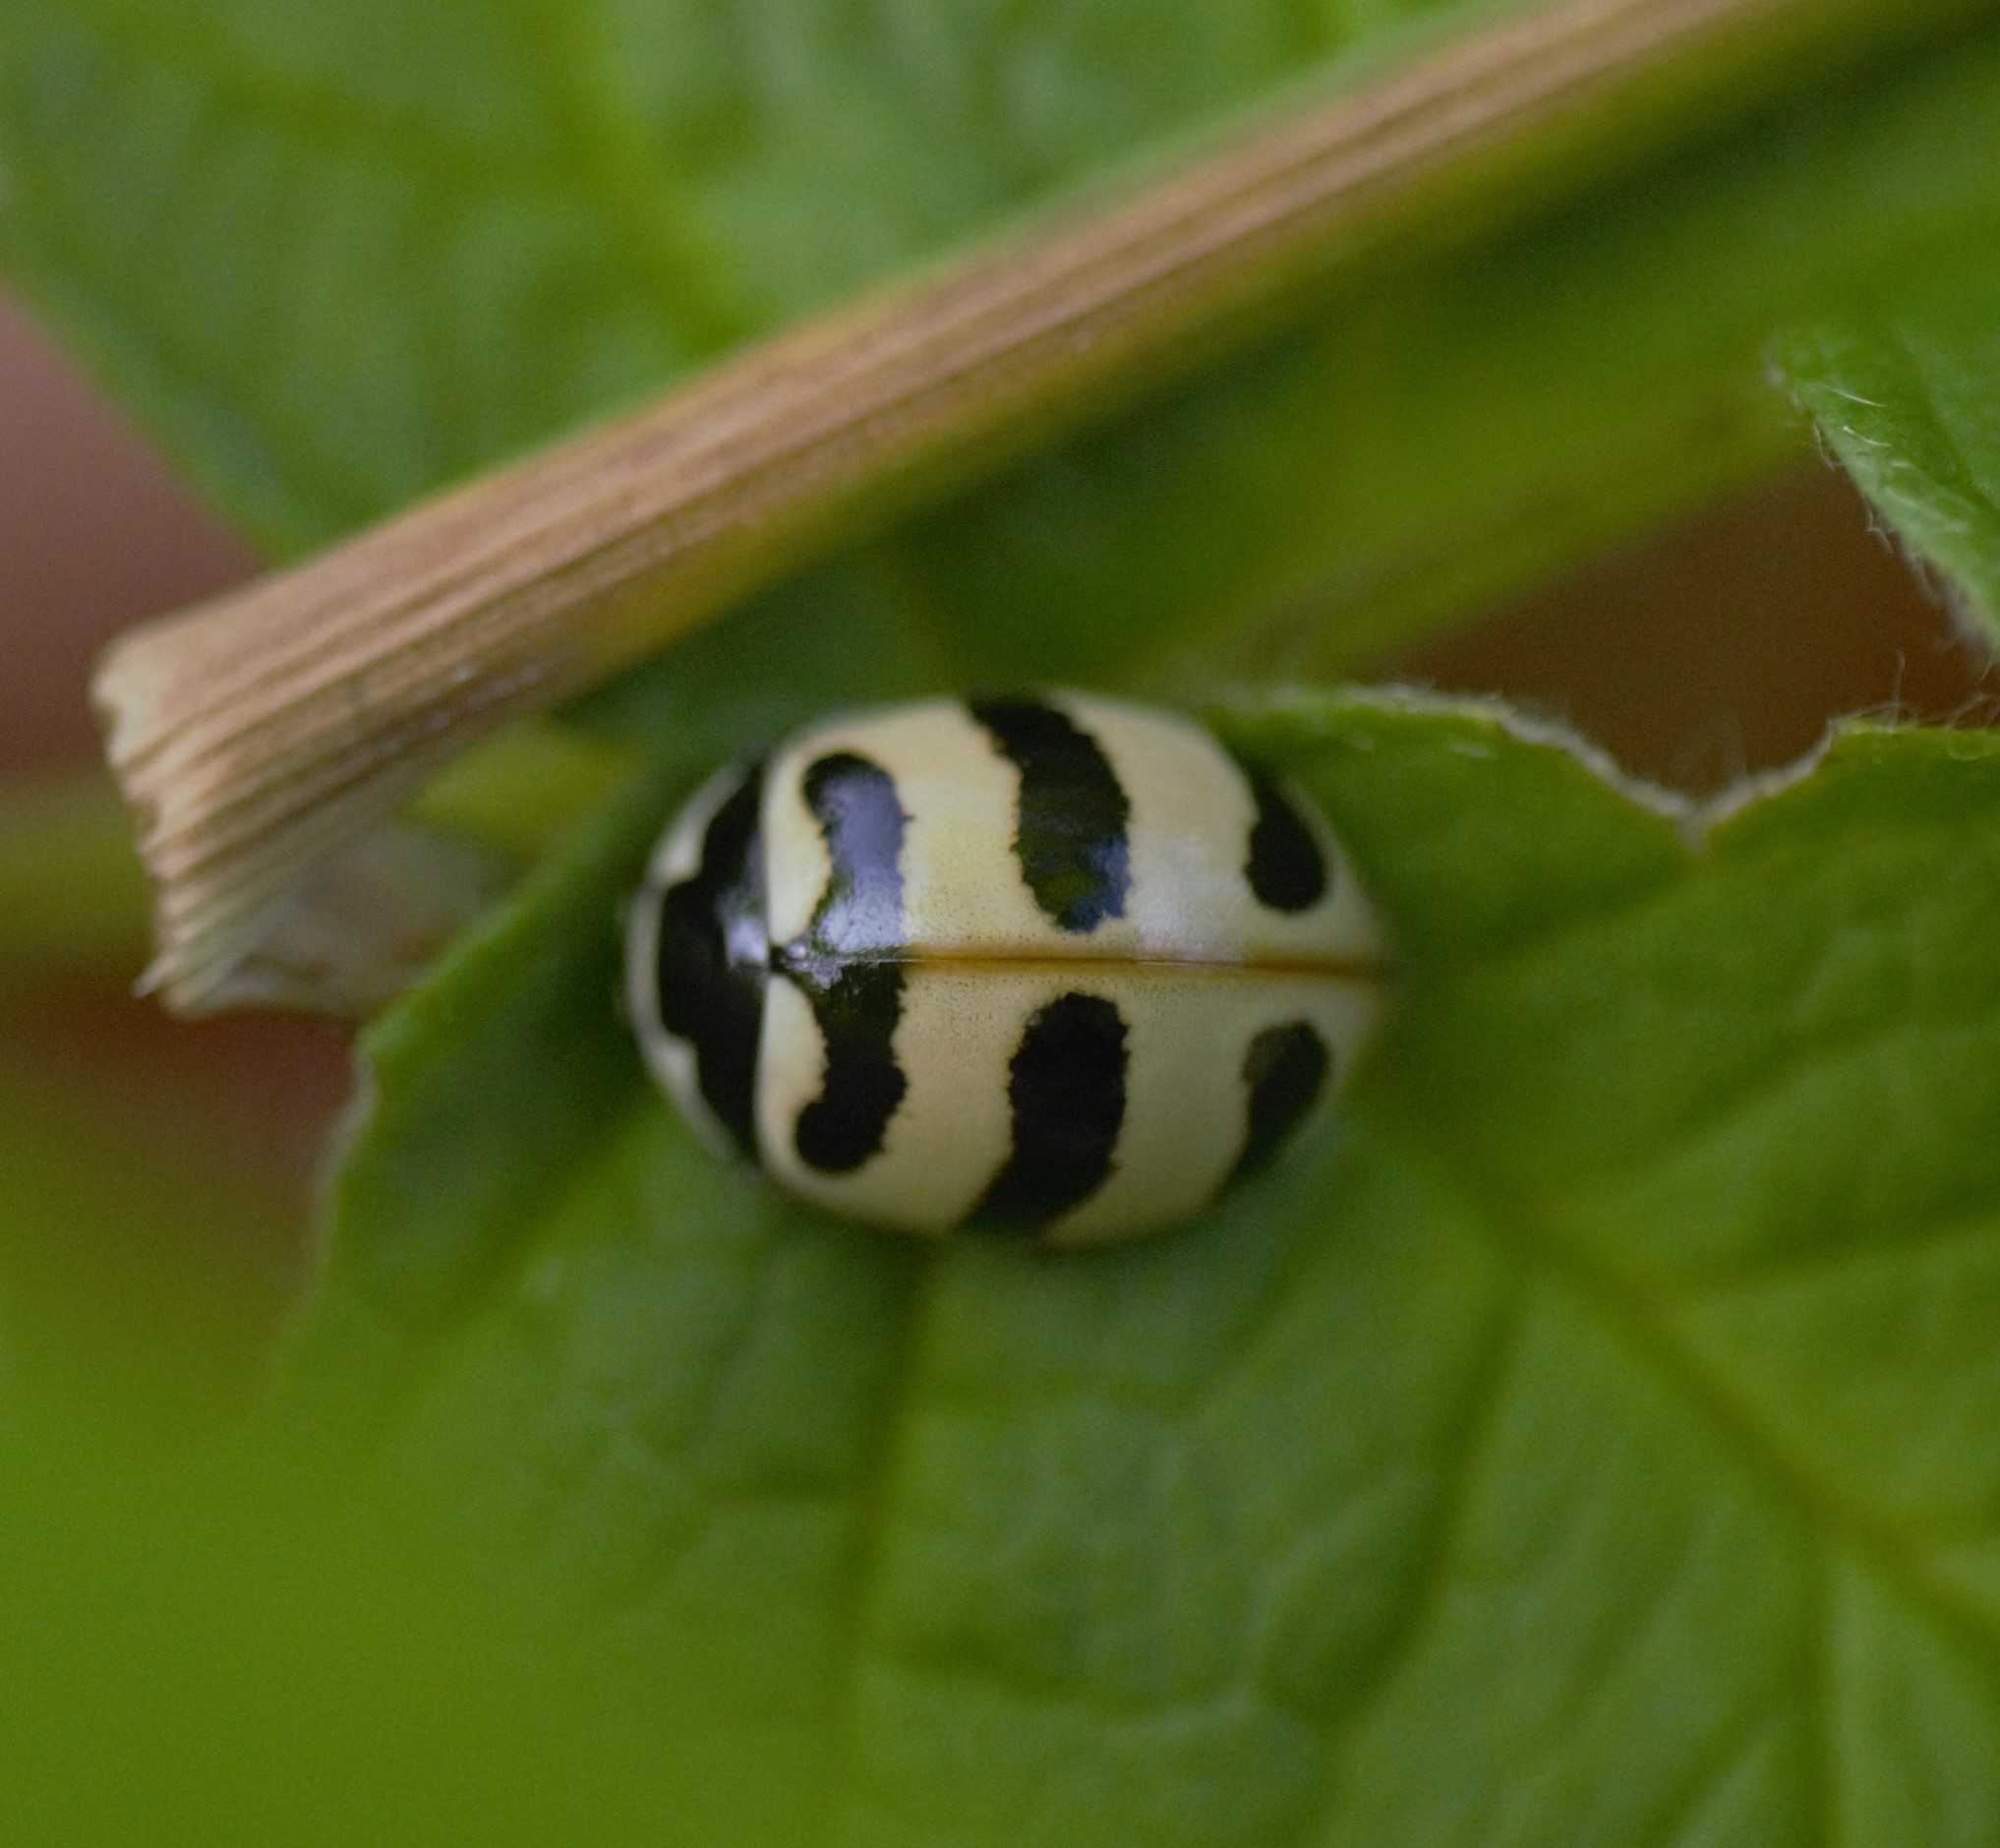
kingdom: Animalia
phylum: Arthropoda
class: Insecta
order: Coleoptera
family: Coccinellidae
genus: Coccinella
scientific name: Coccinella trifasciata
